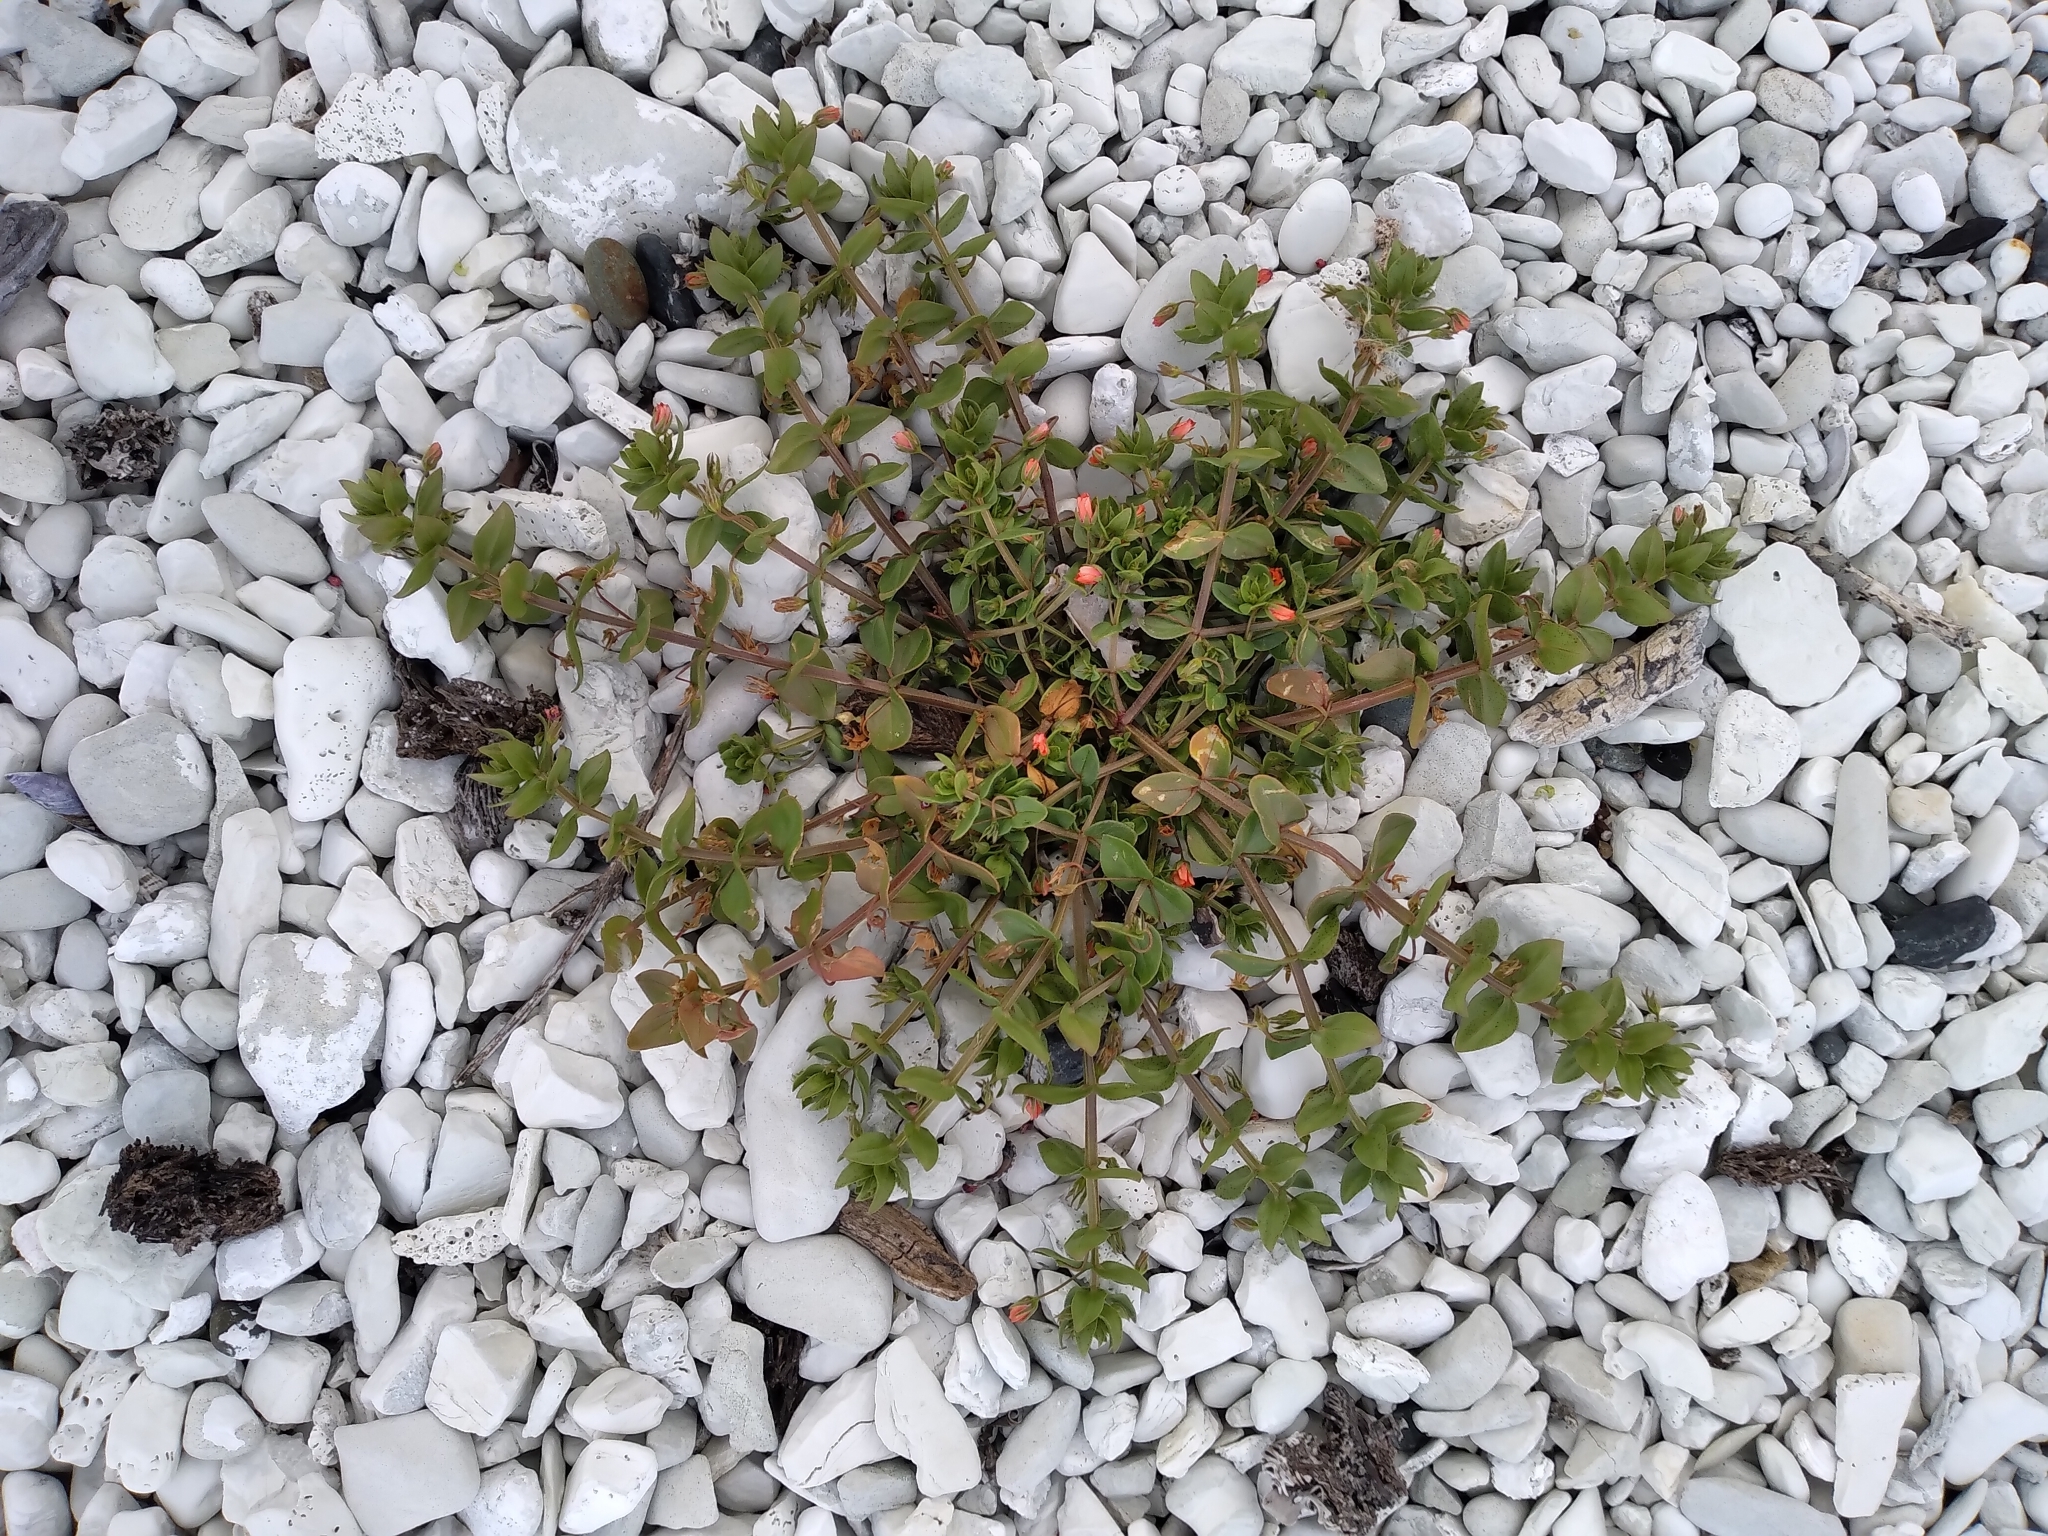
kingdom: Plantae
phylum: Tracheophyta
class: Magnoliopsida
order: Ericales
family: Primulaceae
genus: Lysimachia
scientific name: Lysimachia arvensis
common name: Scarlet pimpernel
